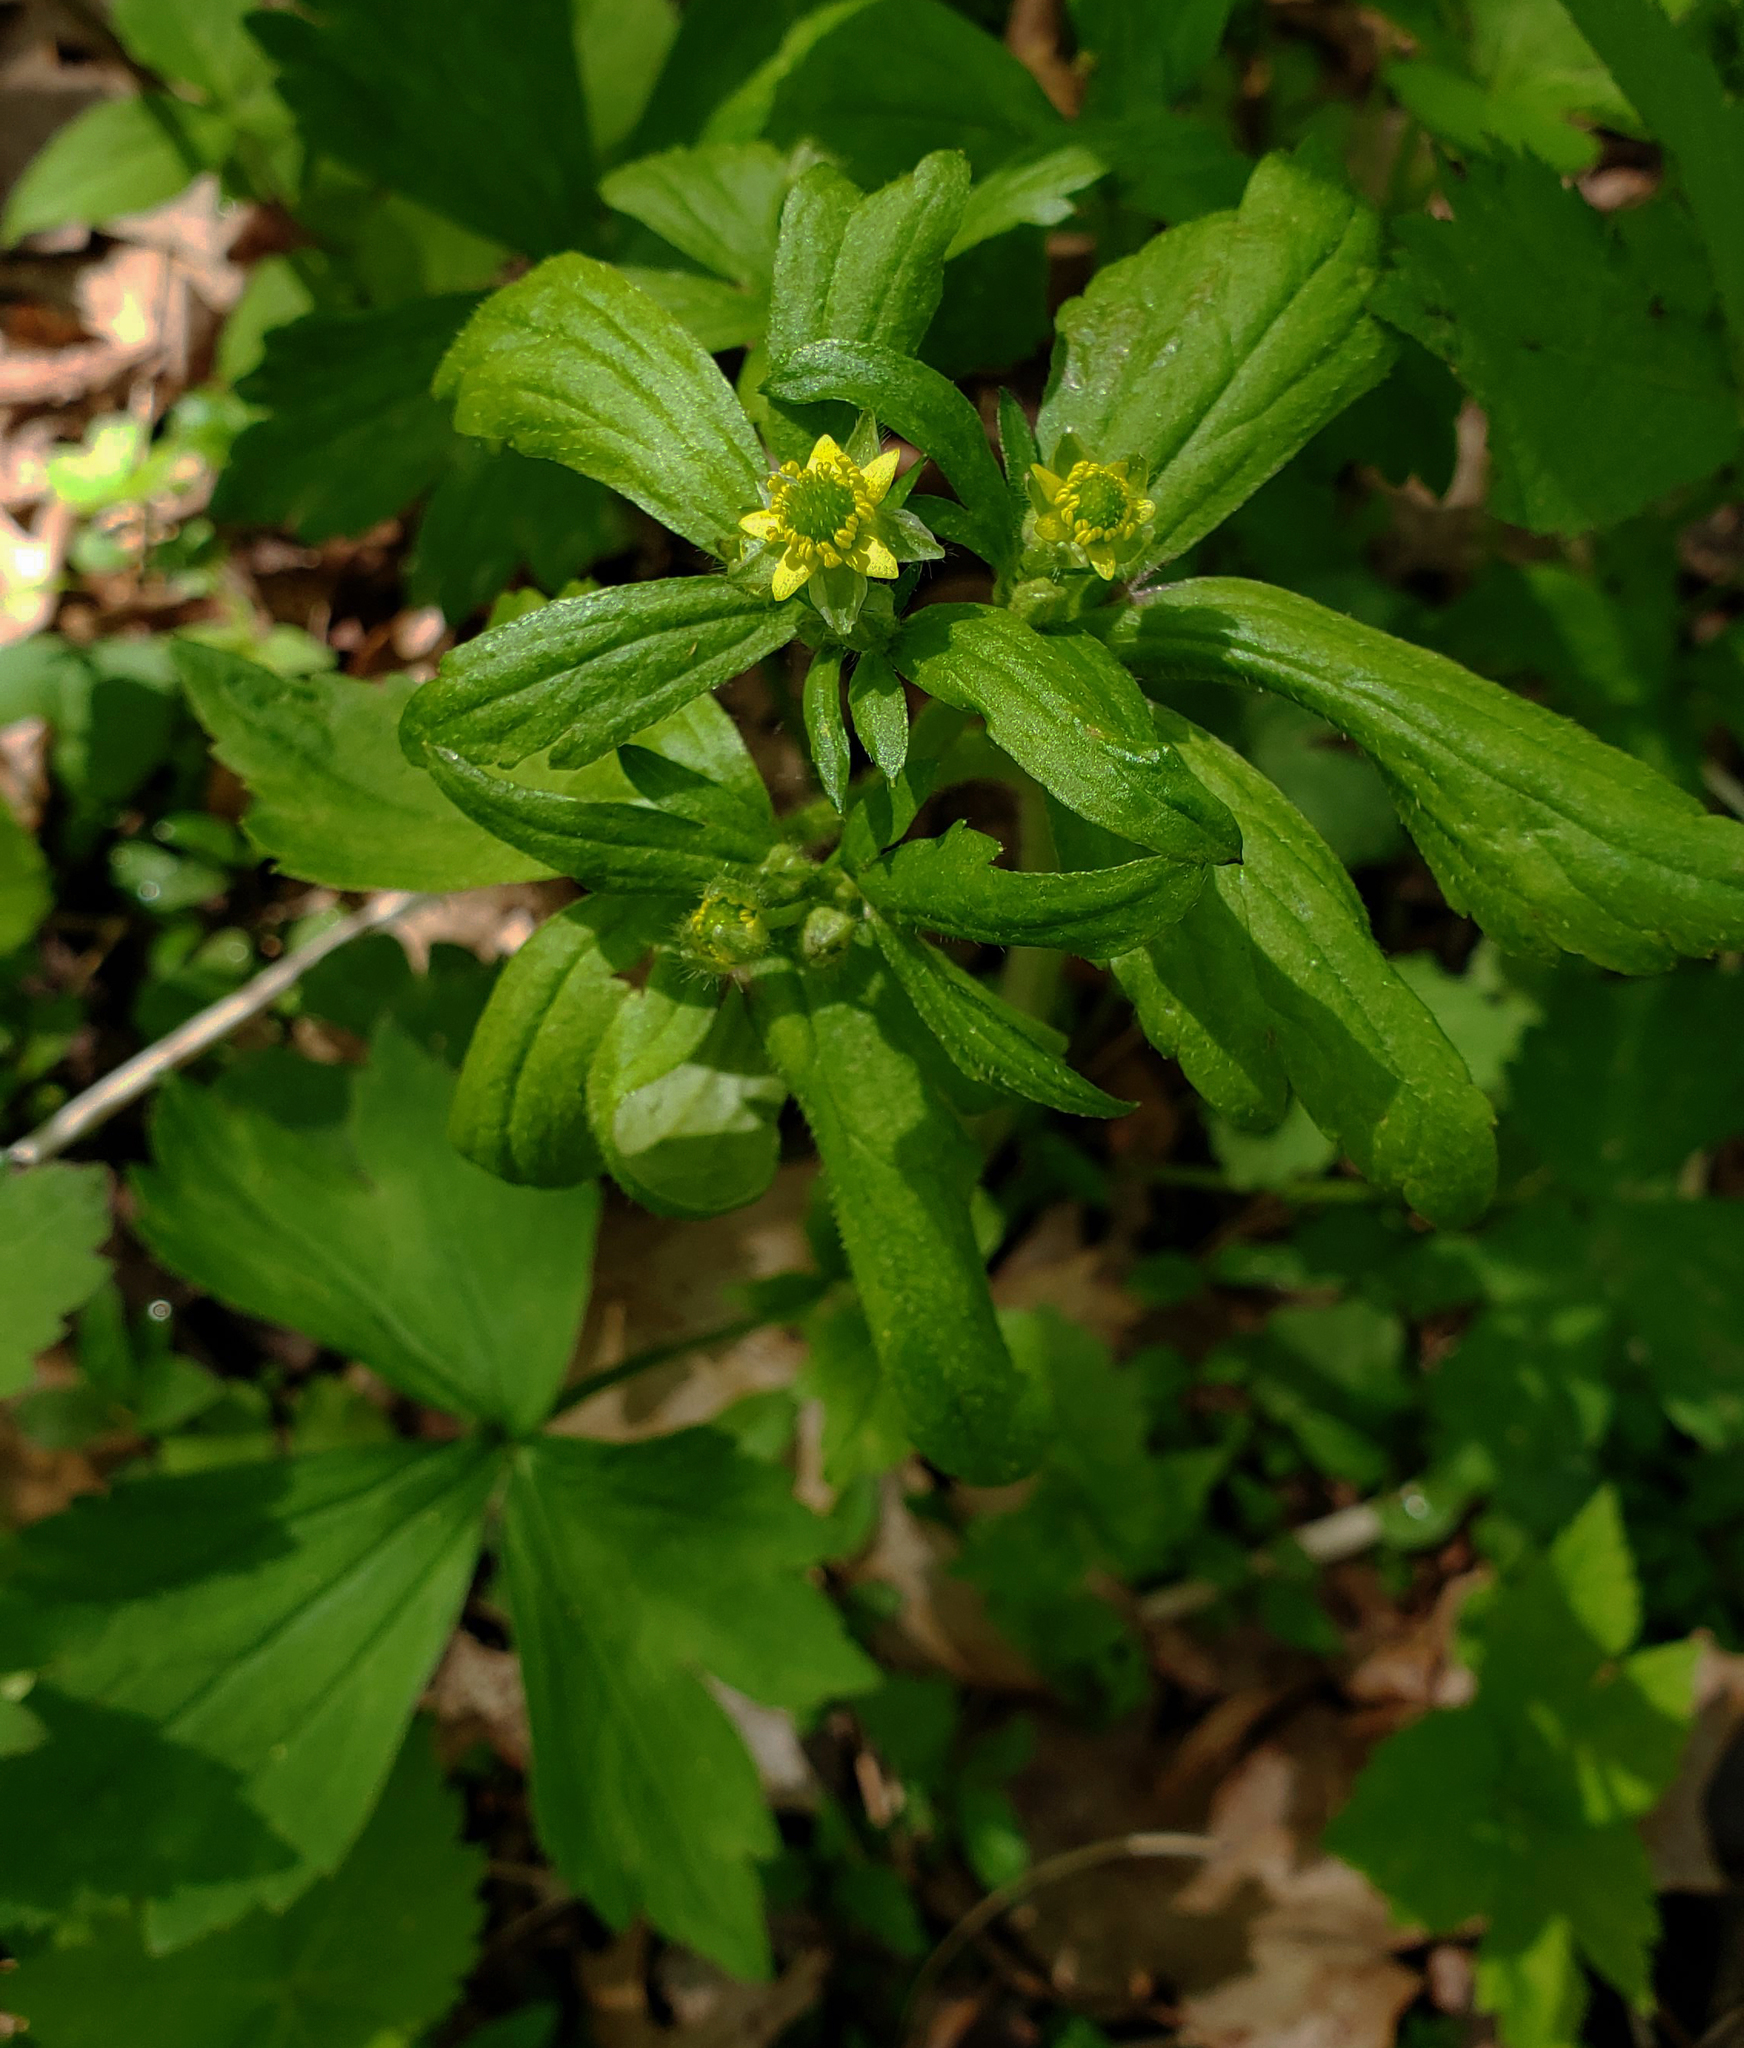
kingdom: Plantae
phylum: Tracheophyta
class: Magnoliopsida
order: Ranunculales
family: Ranunculaceae
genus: Ranunculus
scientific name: Ranunculus recurvatus
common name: Blisterwort
